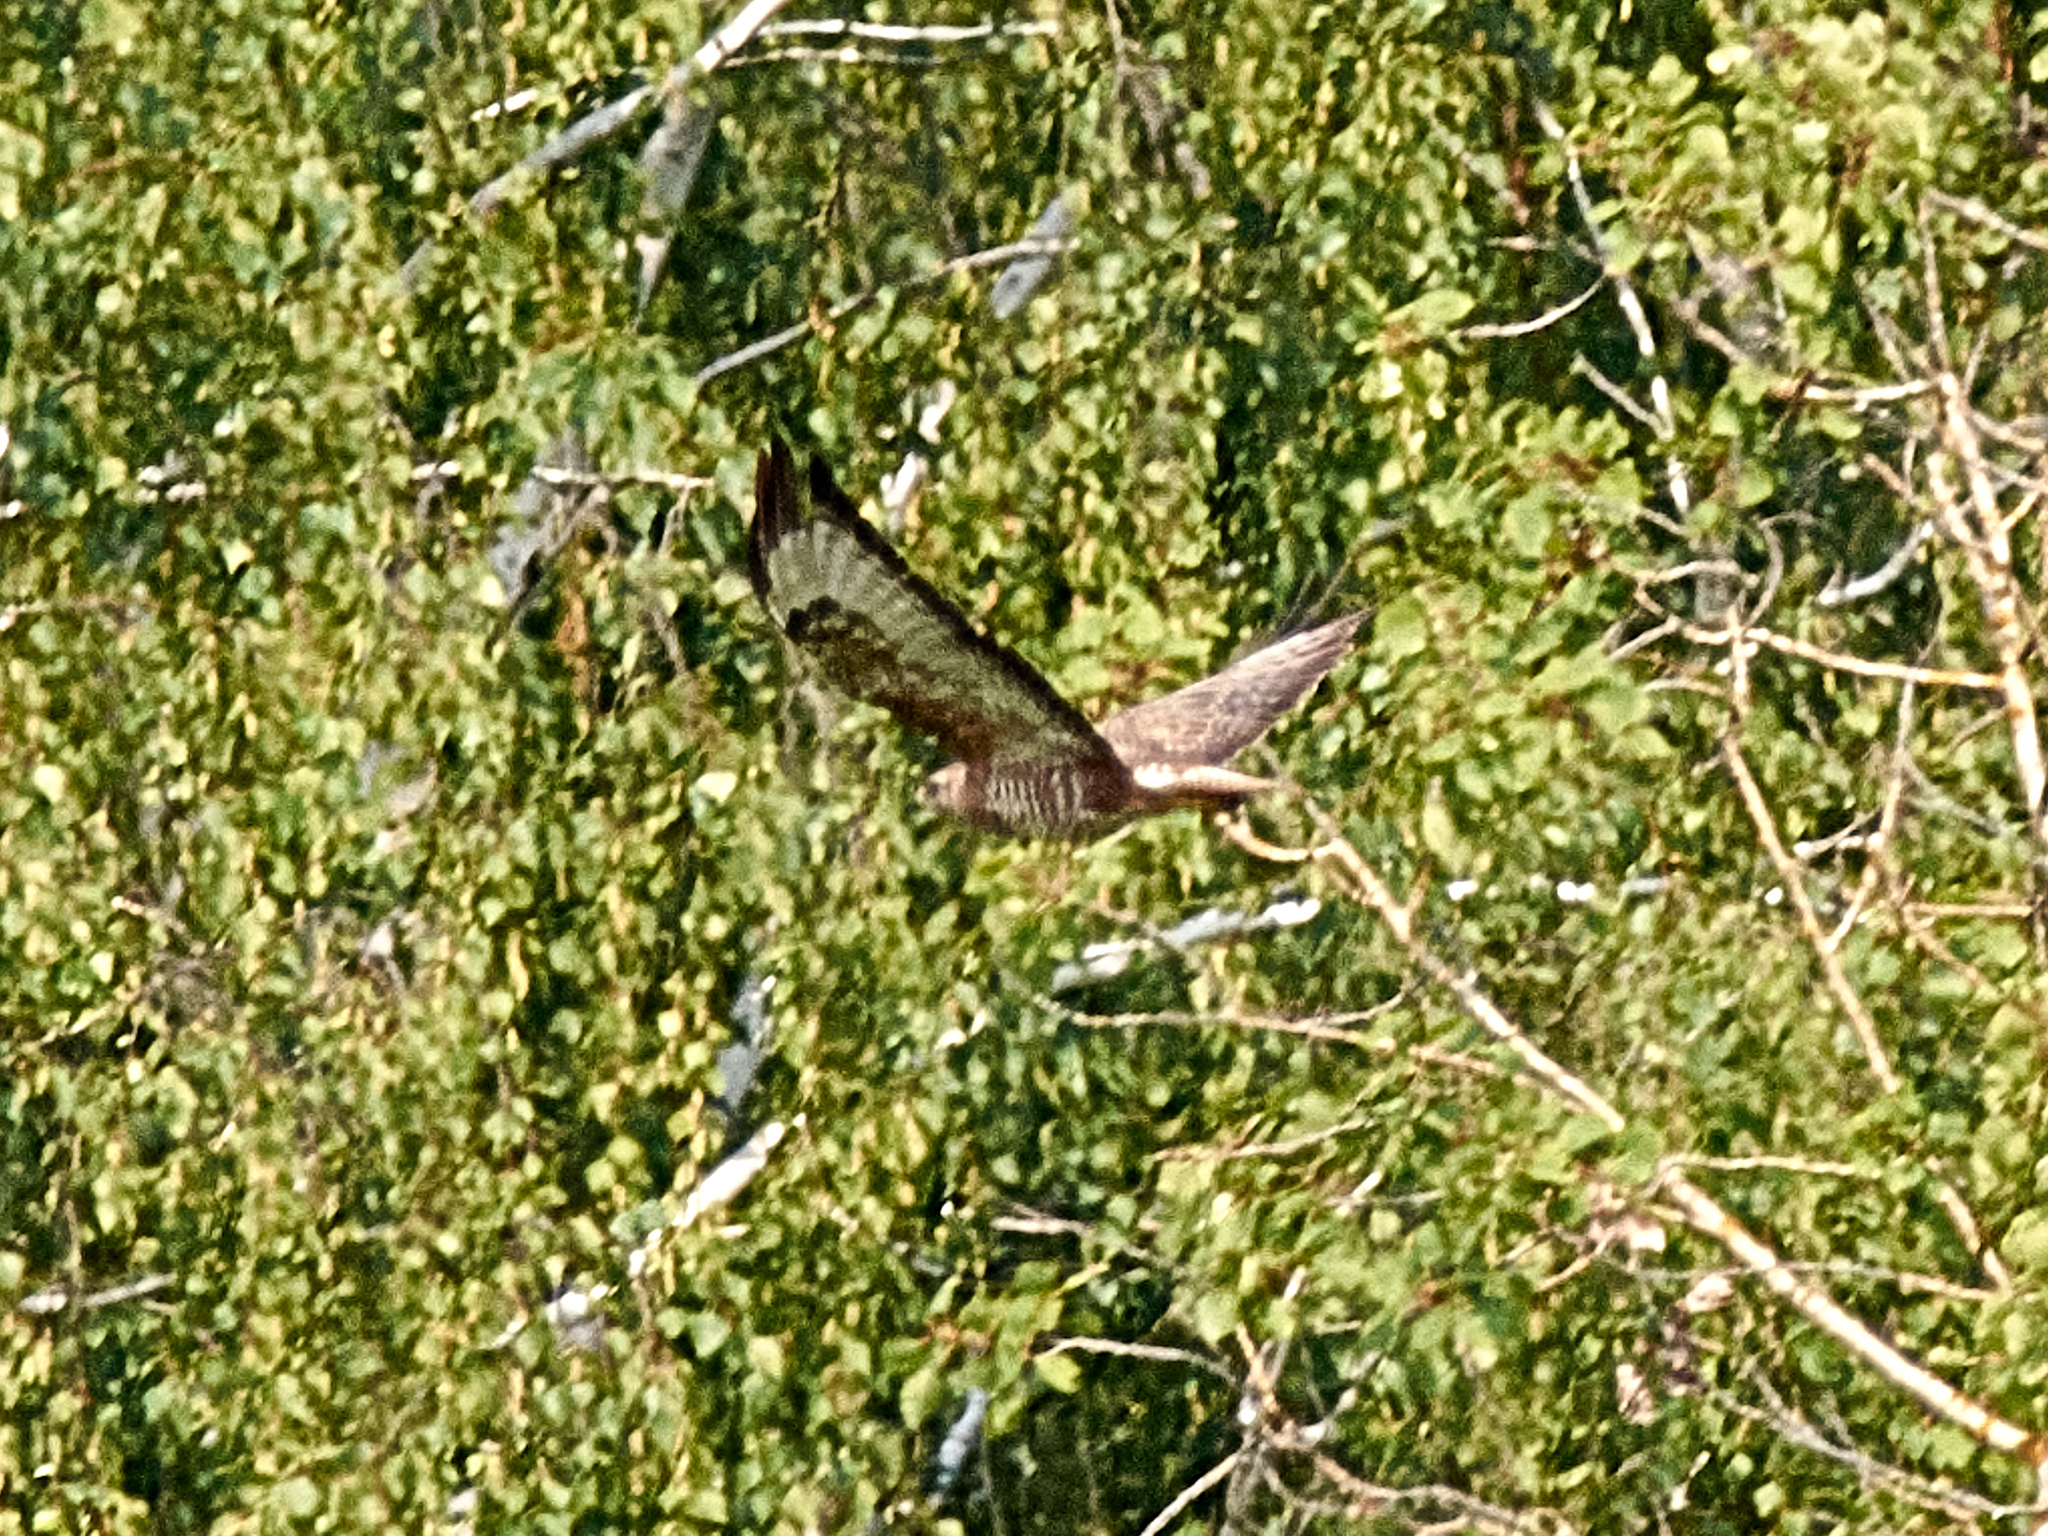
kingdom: Animalia
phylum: Chordata
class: Aves
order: Accipitriformes
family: Accipitridae
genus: Buteo
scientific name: Buteo buteo
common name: Common buzzard
